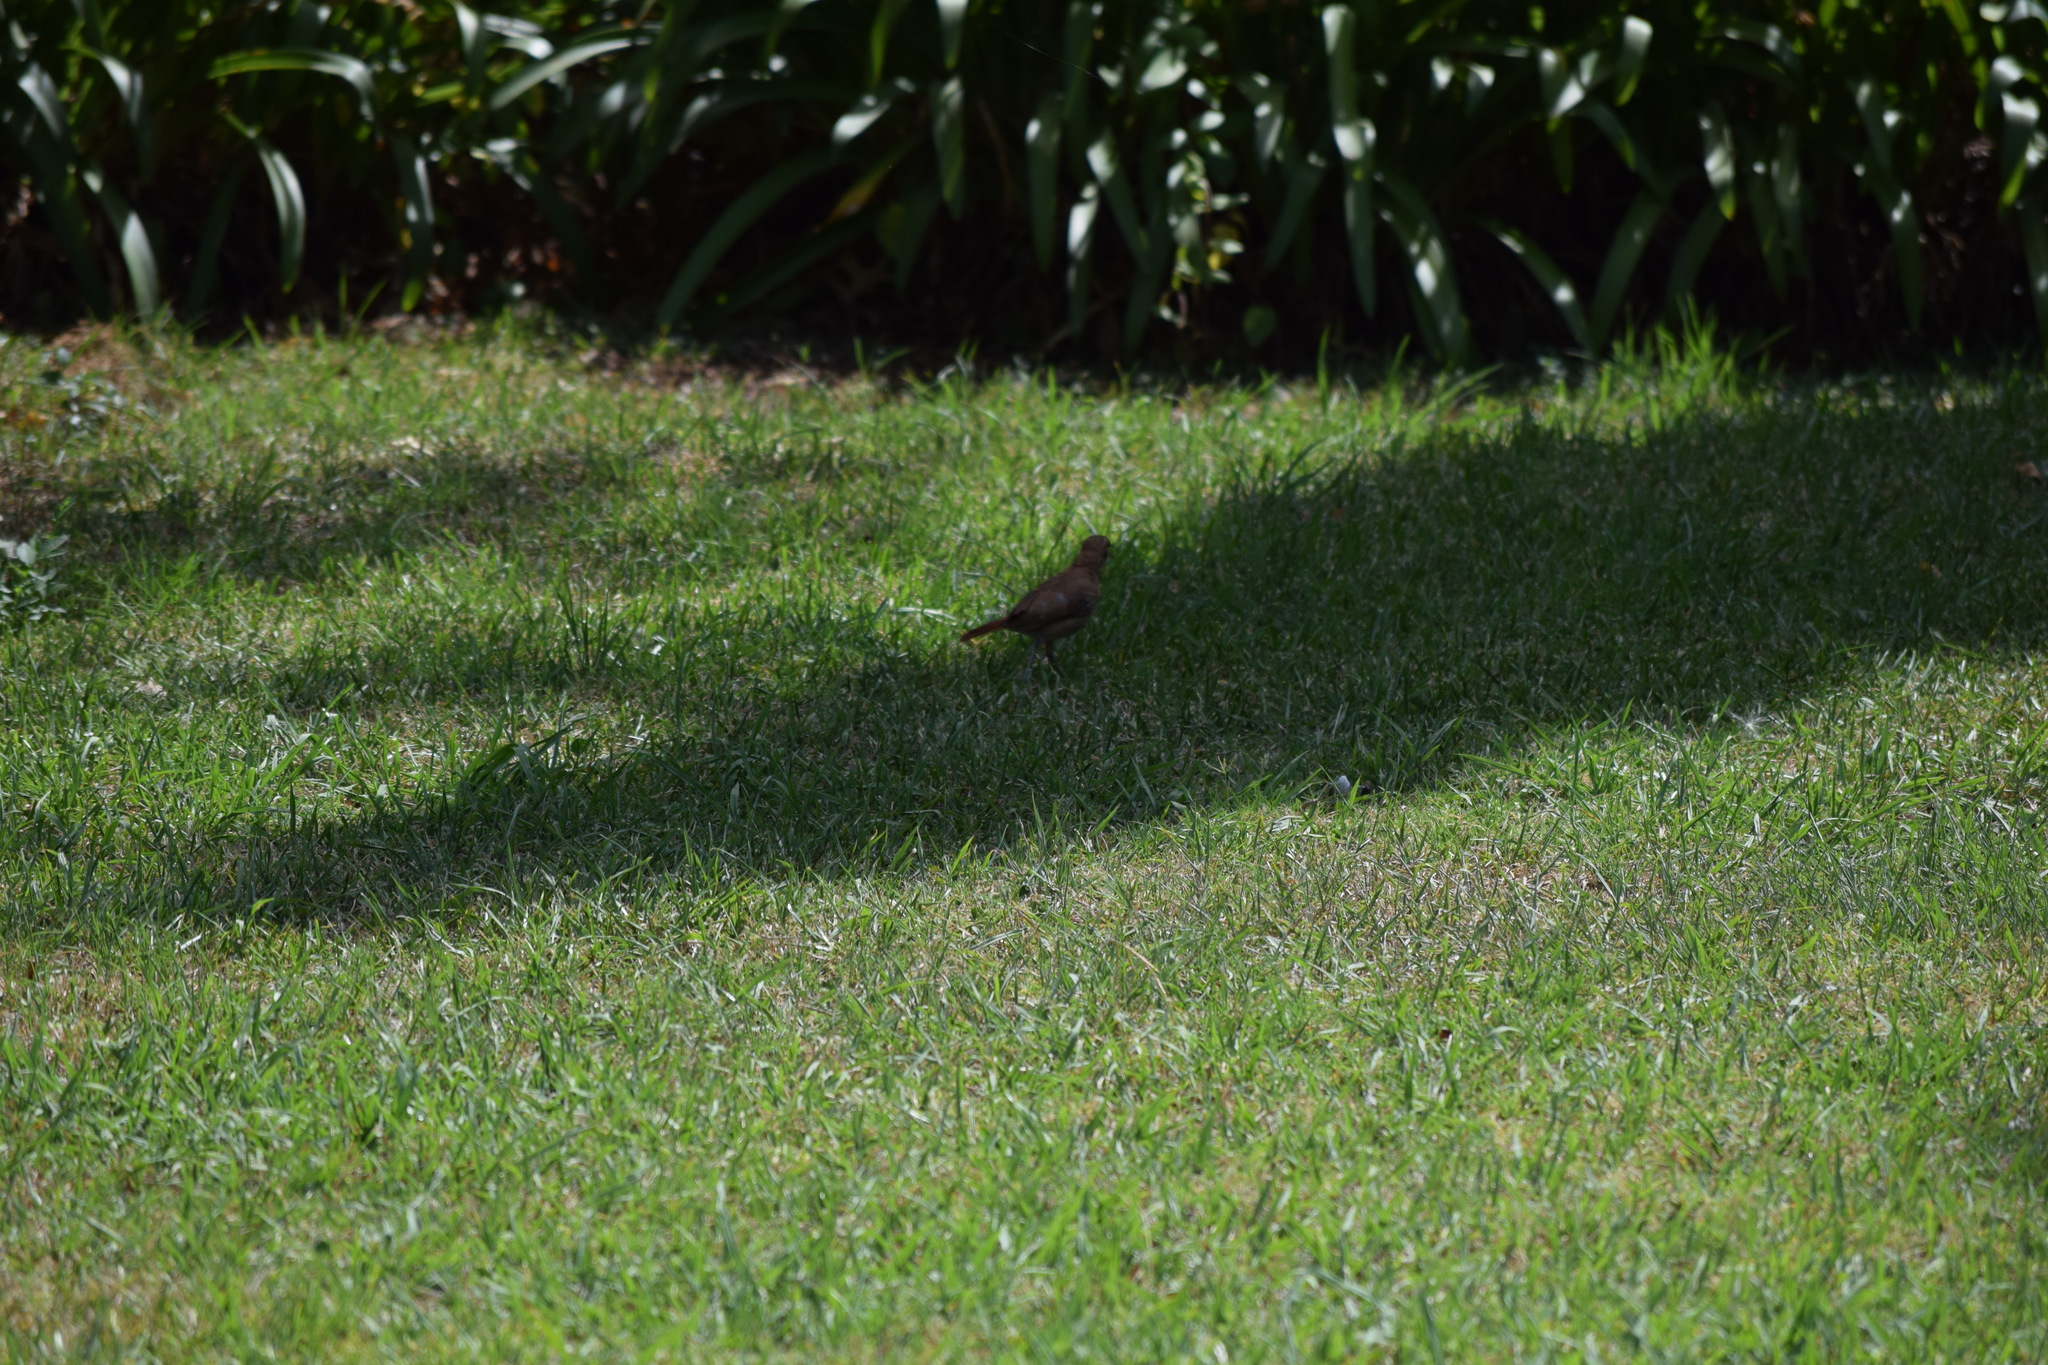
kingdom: Animalia
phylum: Chordata
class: Aves
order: Passeriformes
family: Furnariidae
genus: Furnarius
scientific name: Furnarius rufus
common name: Rufous hornero
